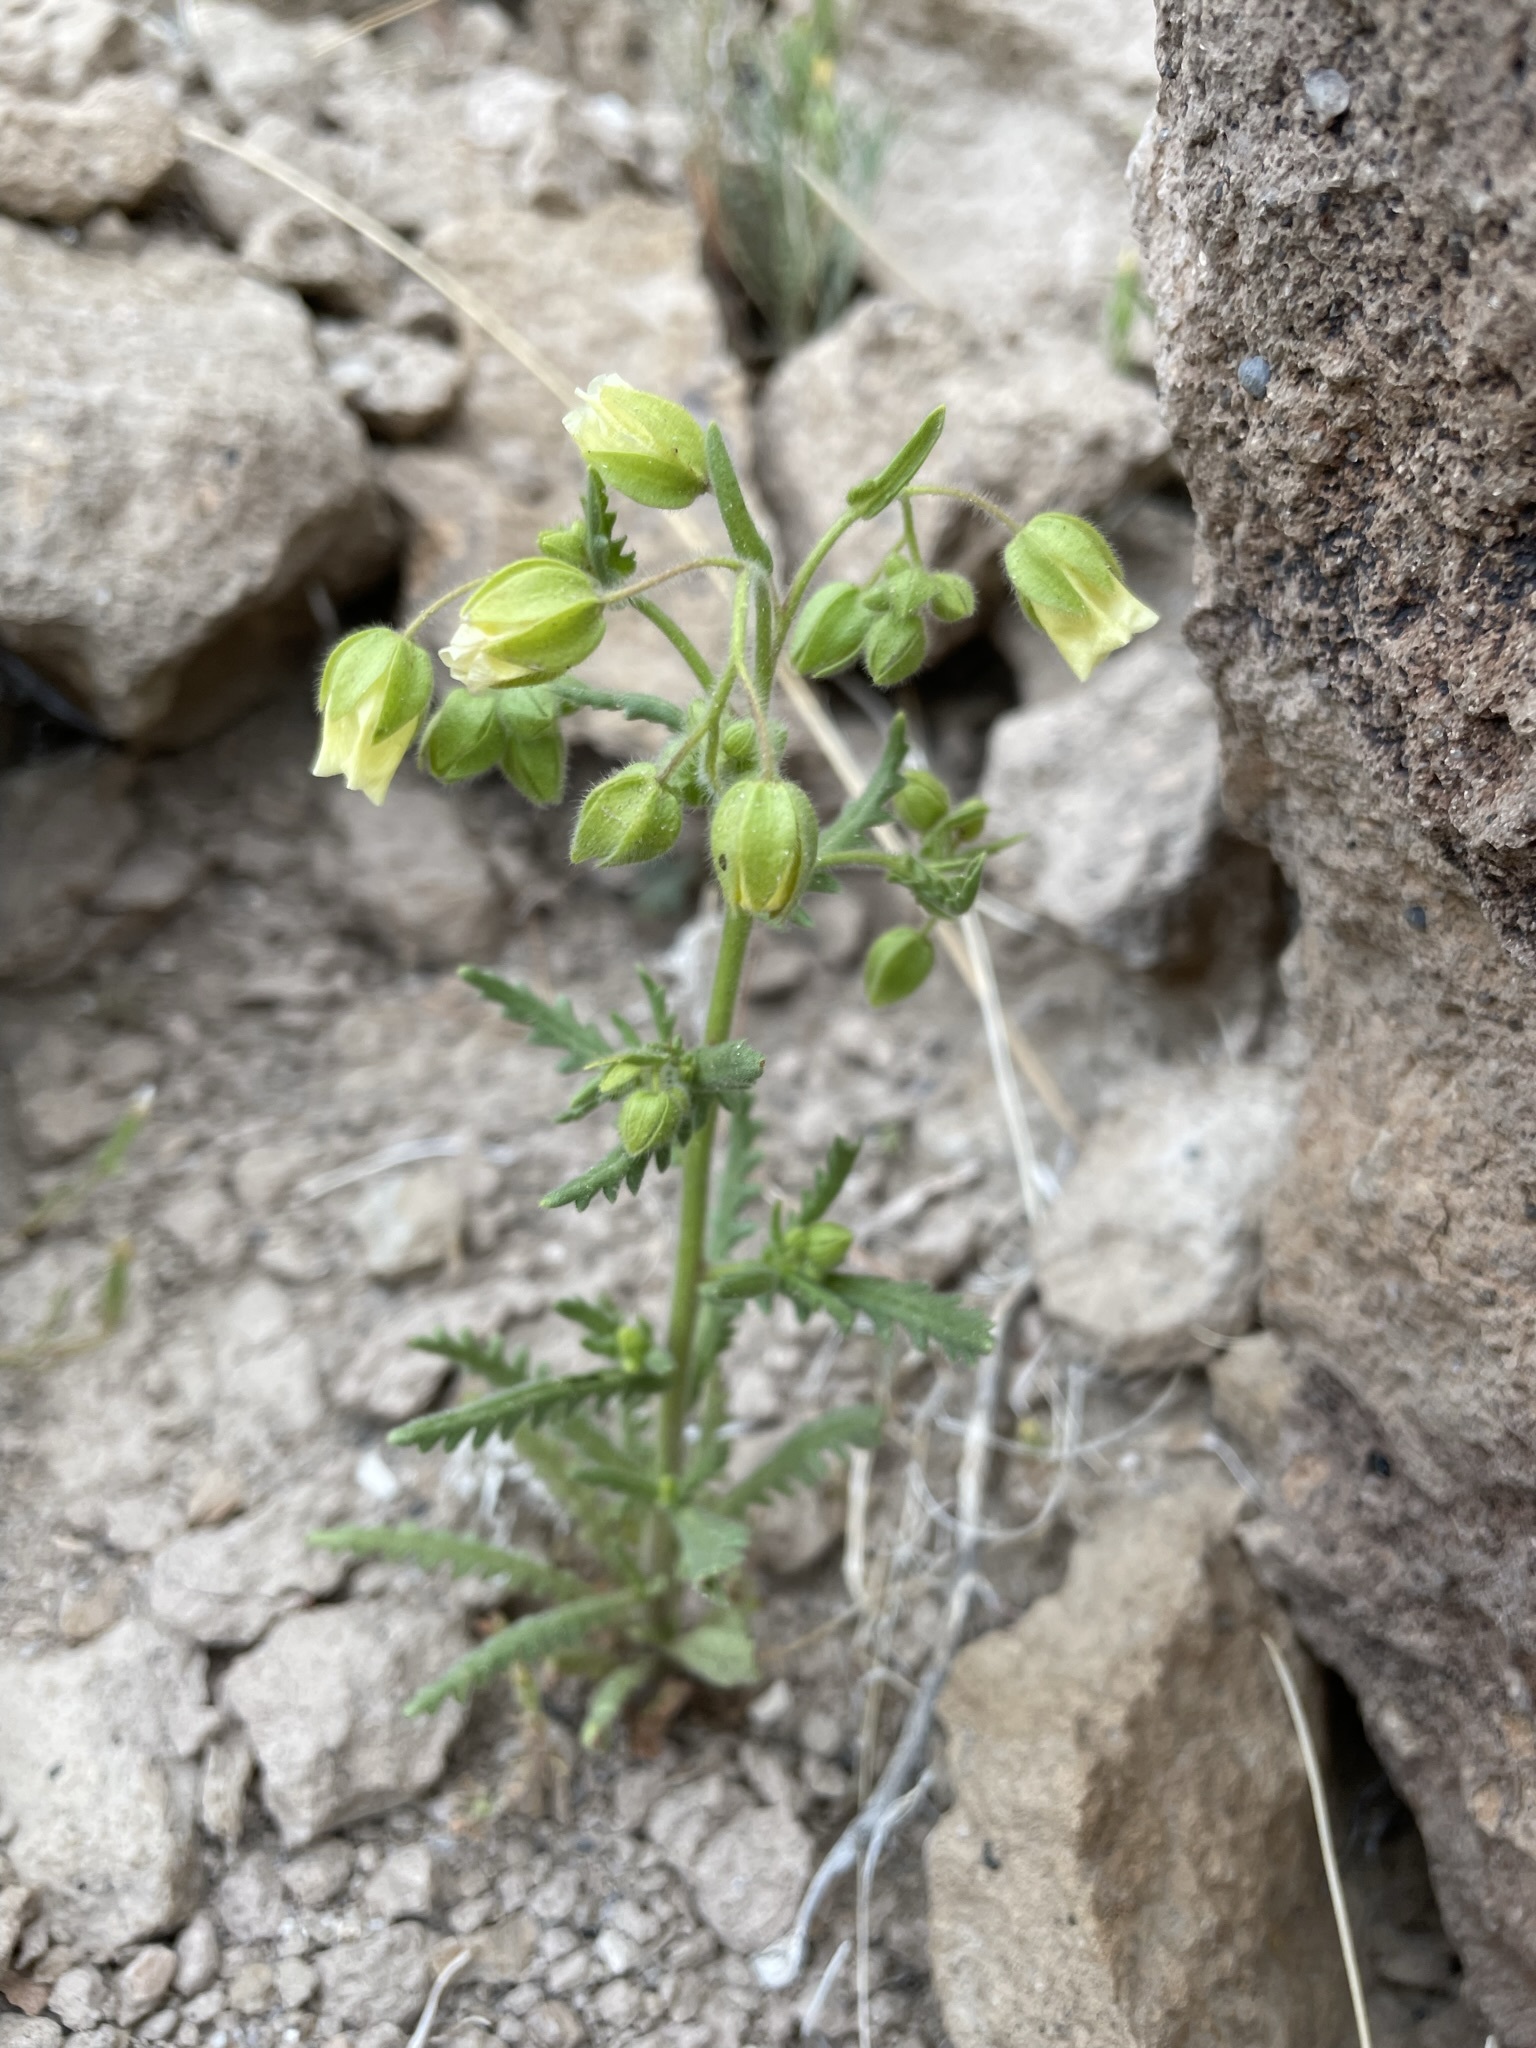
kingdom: Plantae
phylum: Tracheophyta
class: Magnoliopsida
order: Boraginales
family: Hydrophyllaceae
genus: Emmenanthe
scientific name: Emmenanthe penduliflora
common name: Whispering-bells
